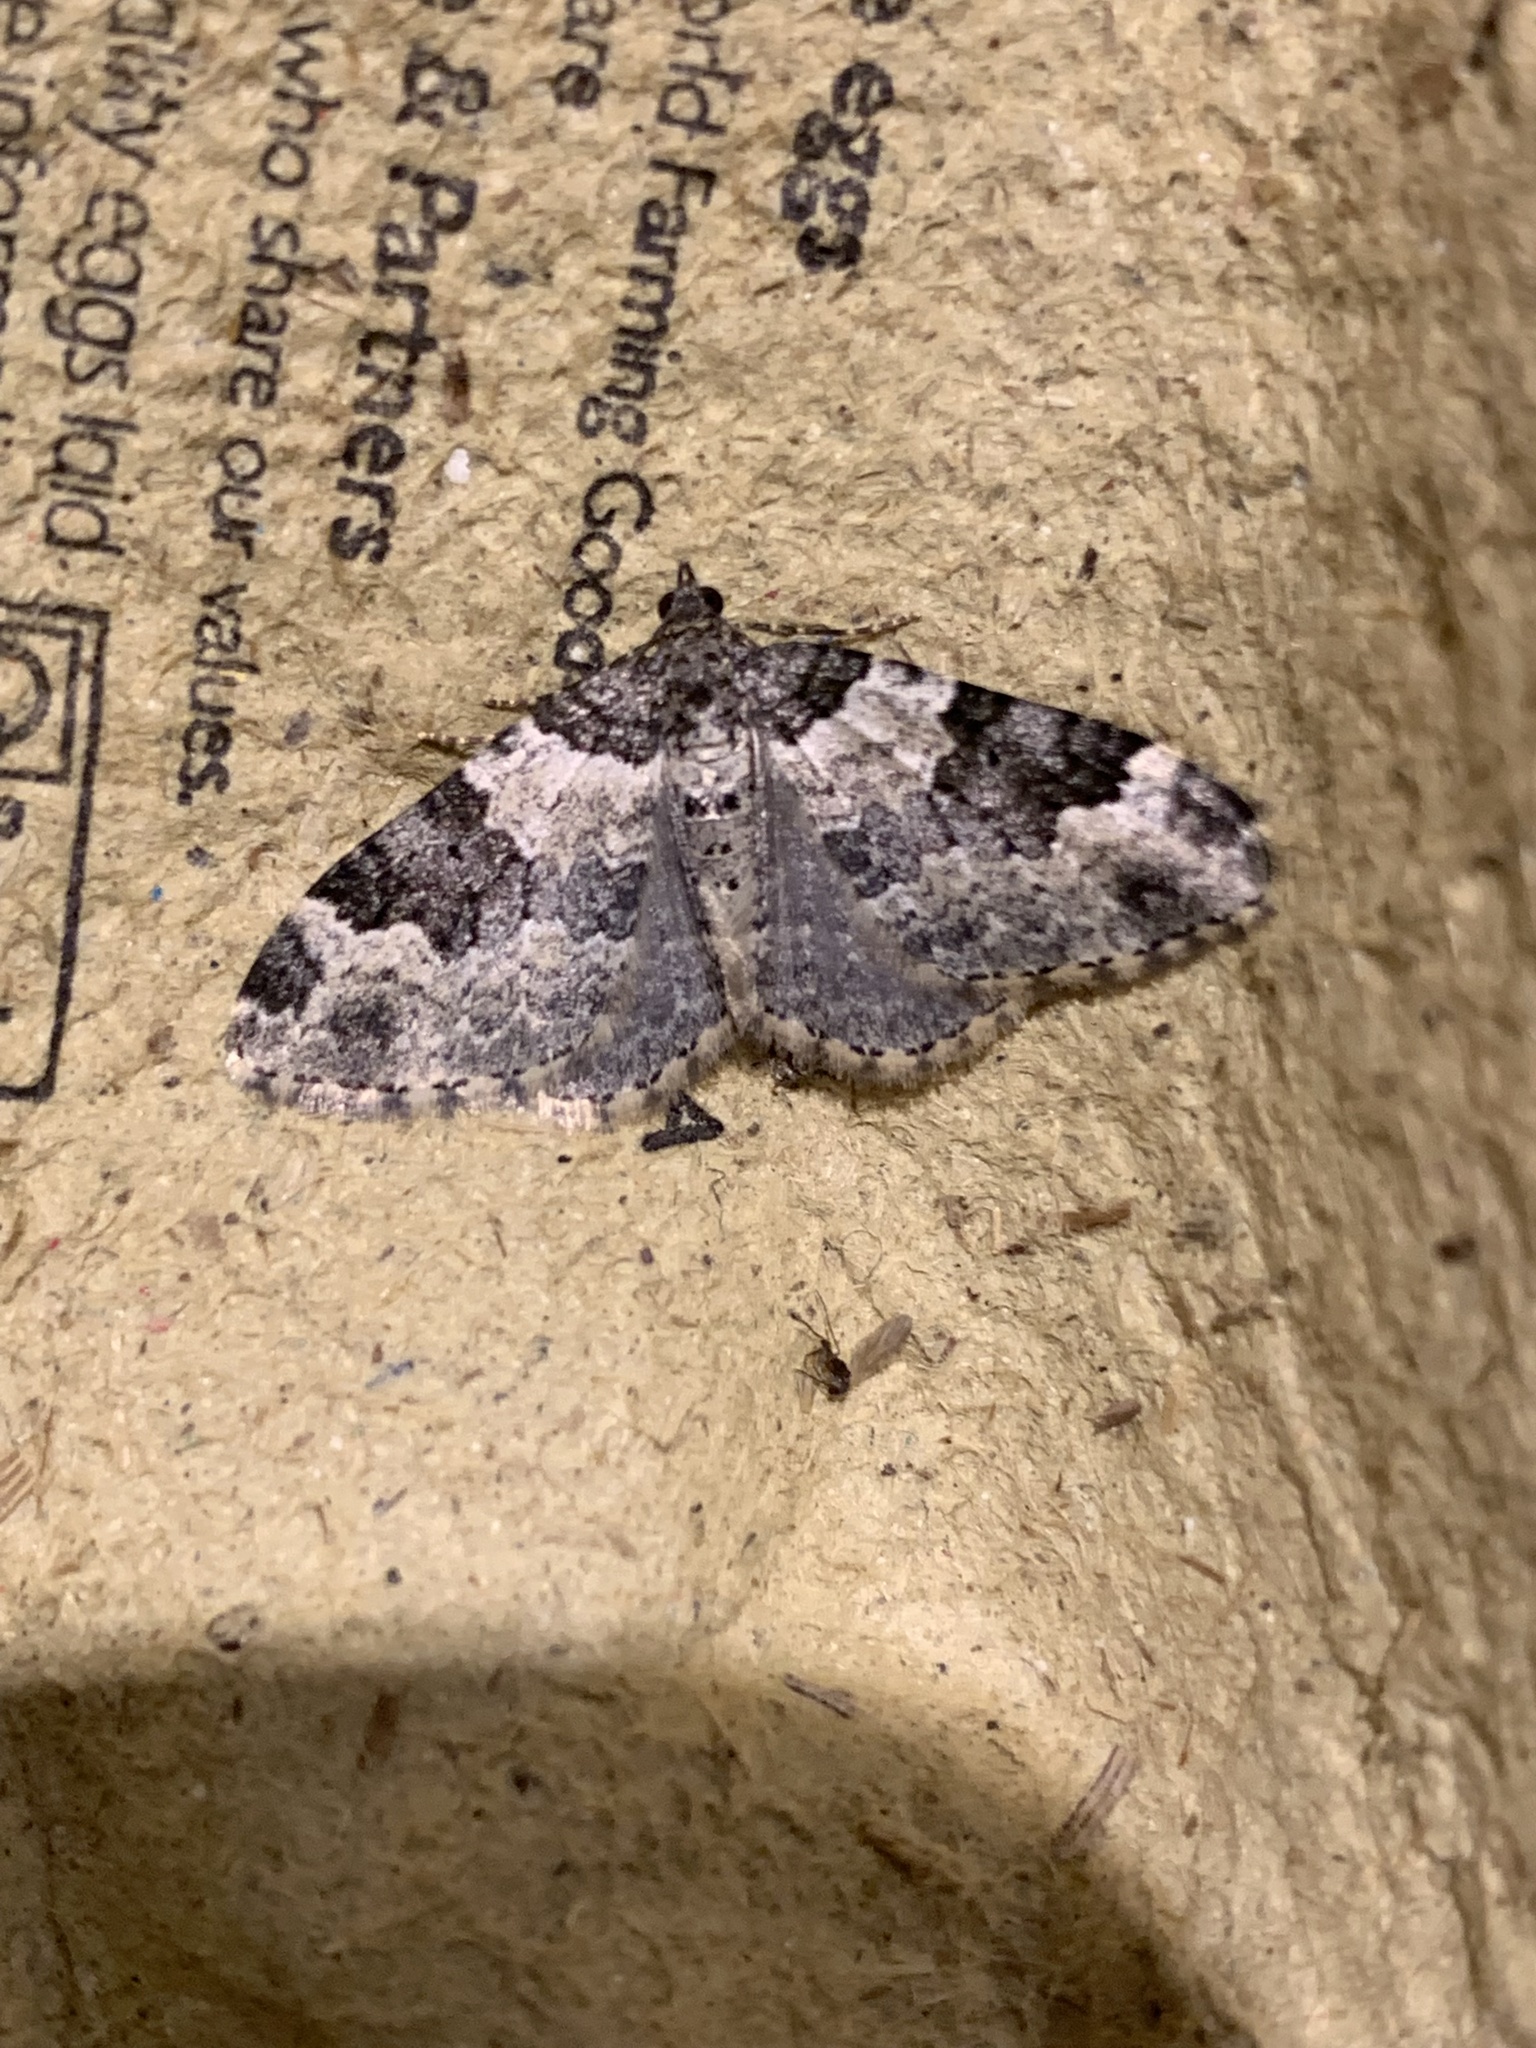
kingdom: Animalia
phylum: Arthropoda
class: Insecta
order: Lepidoptera
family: Geometridae
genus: Xanthorhoe
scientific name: Xanthorhoe fluctuata
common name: Garden carpet
